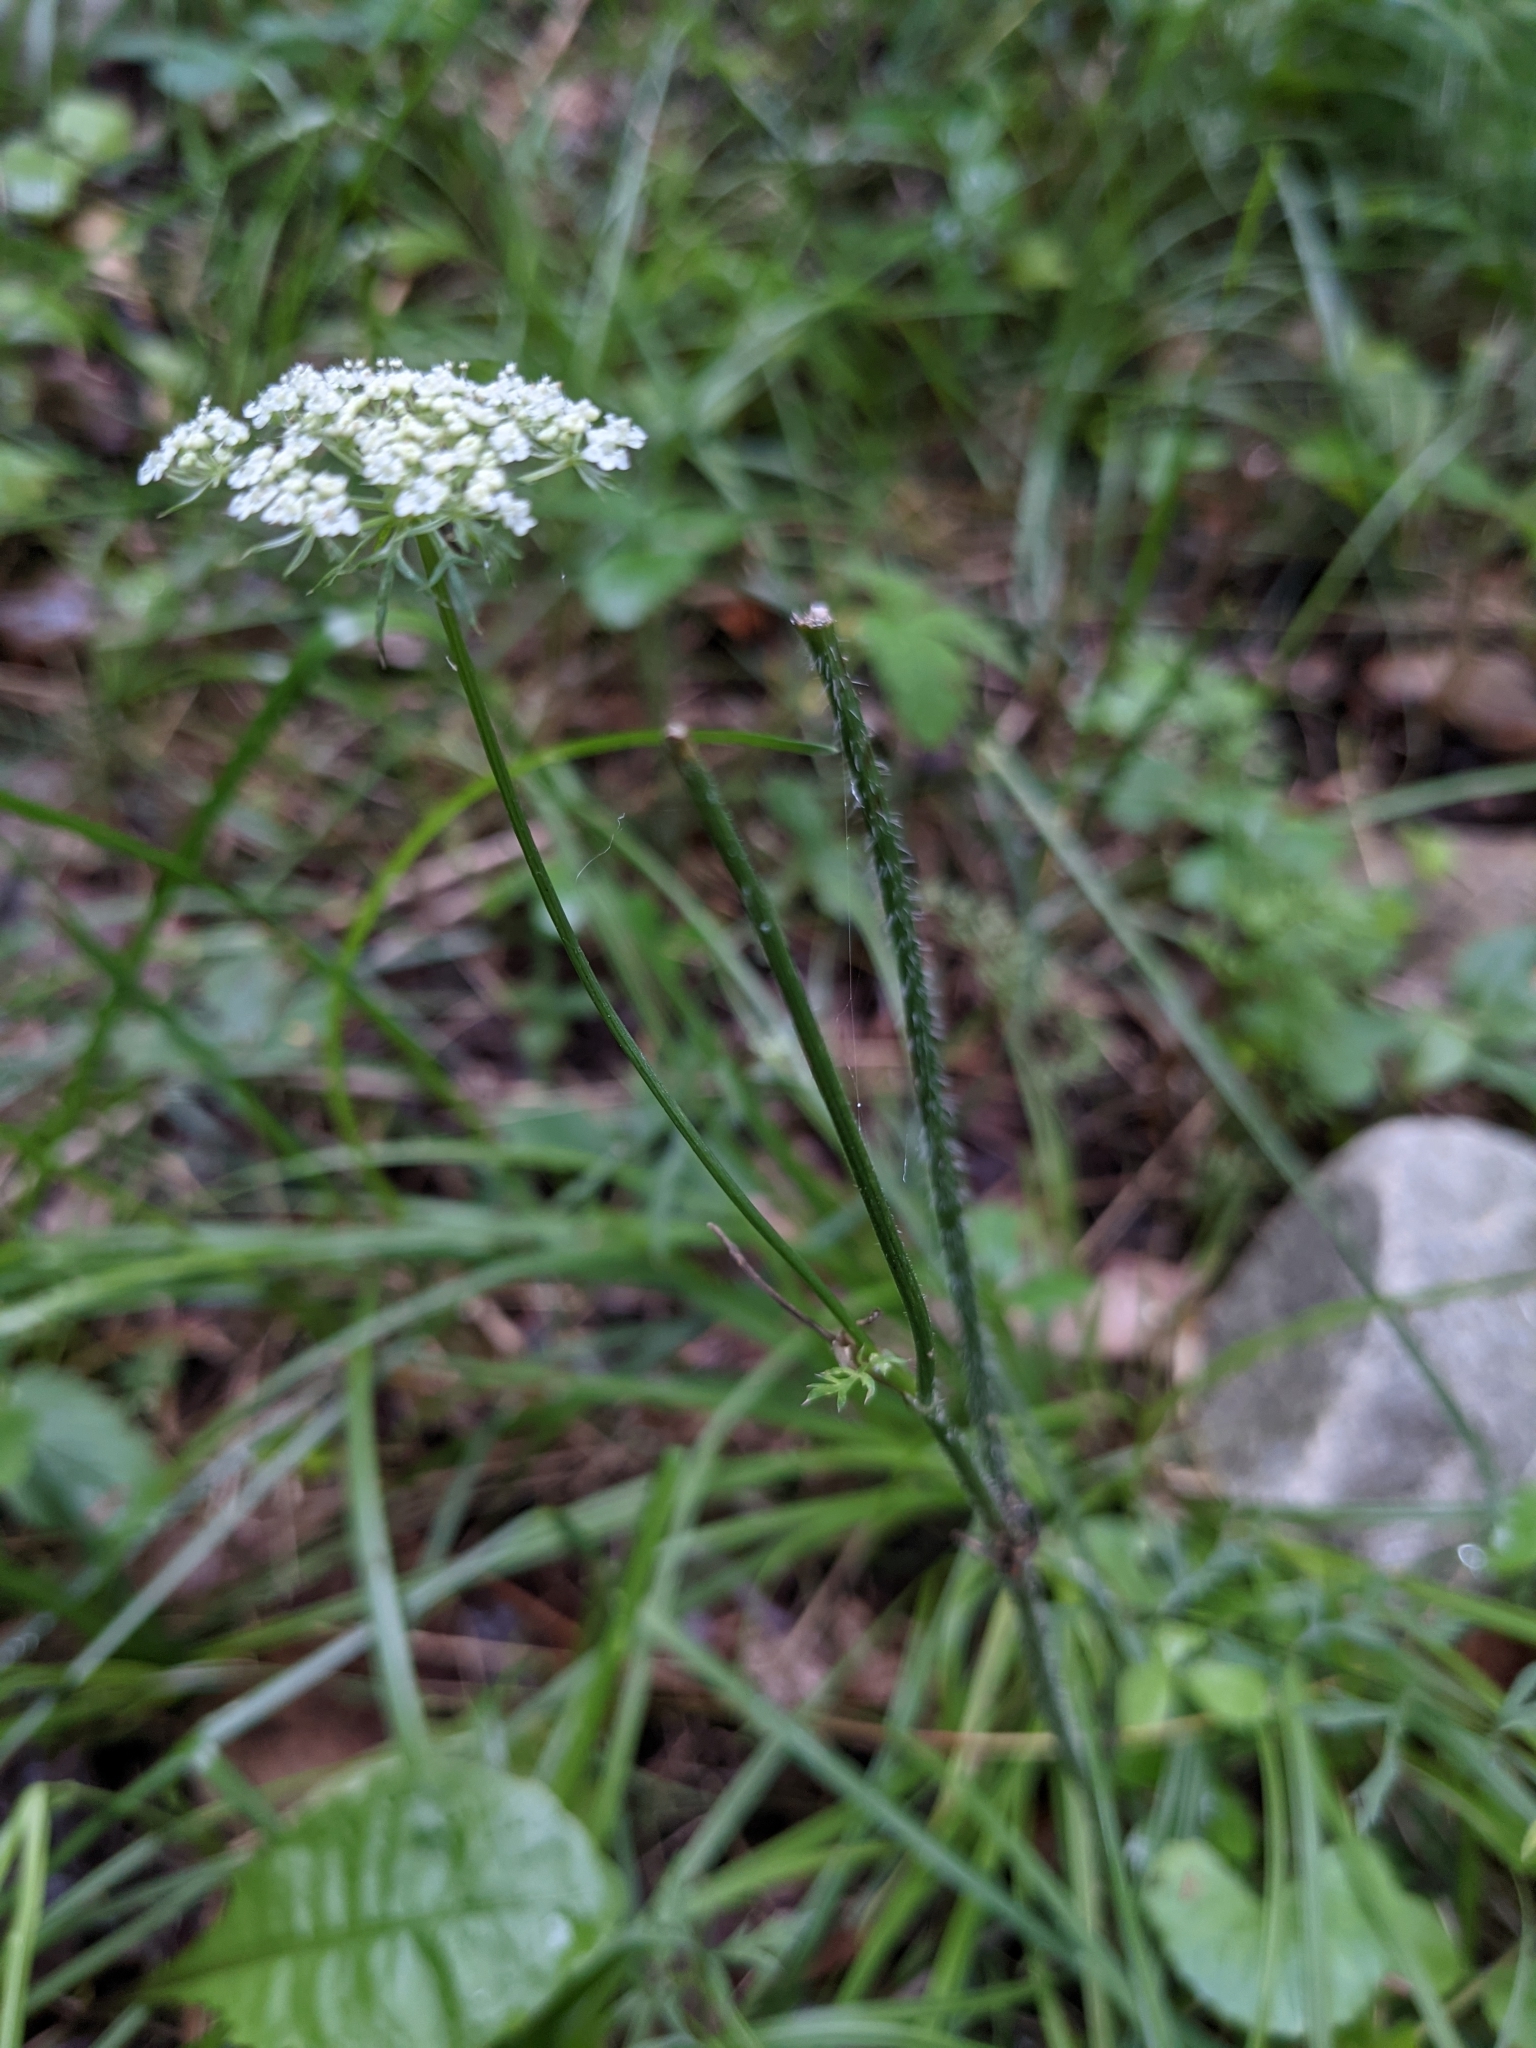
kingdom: Plantae
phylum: Tracheophyta
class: Magnoliopsida
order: Apiales
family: Apiaceae
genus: Daucus
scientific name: Daucus carota
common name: Wild carrot
